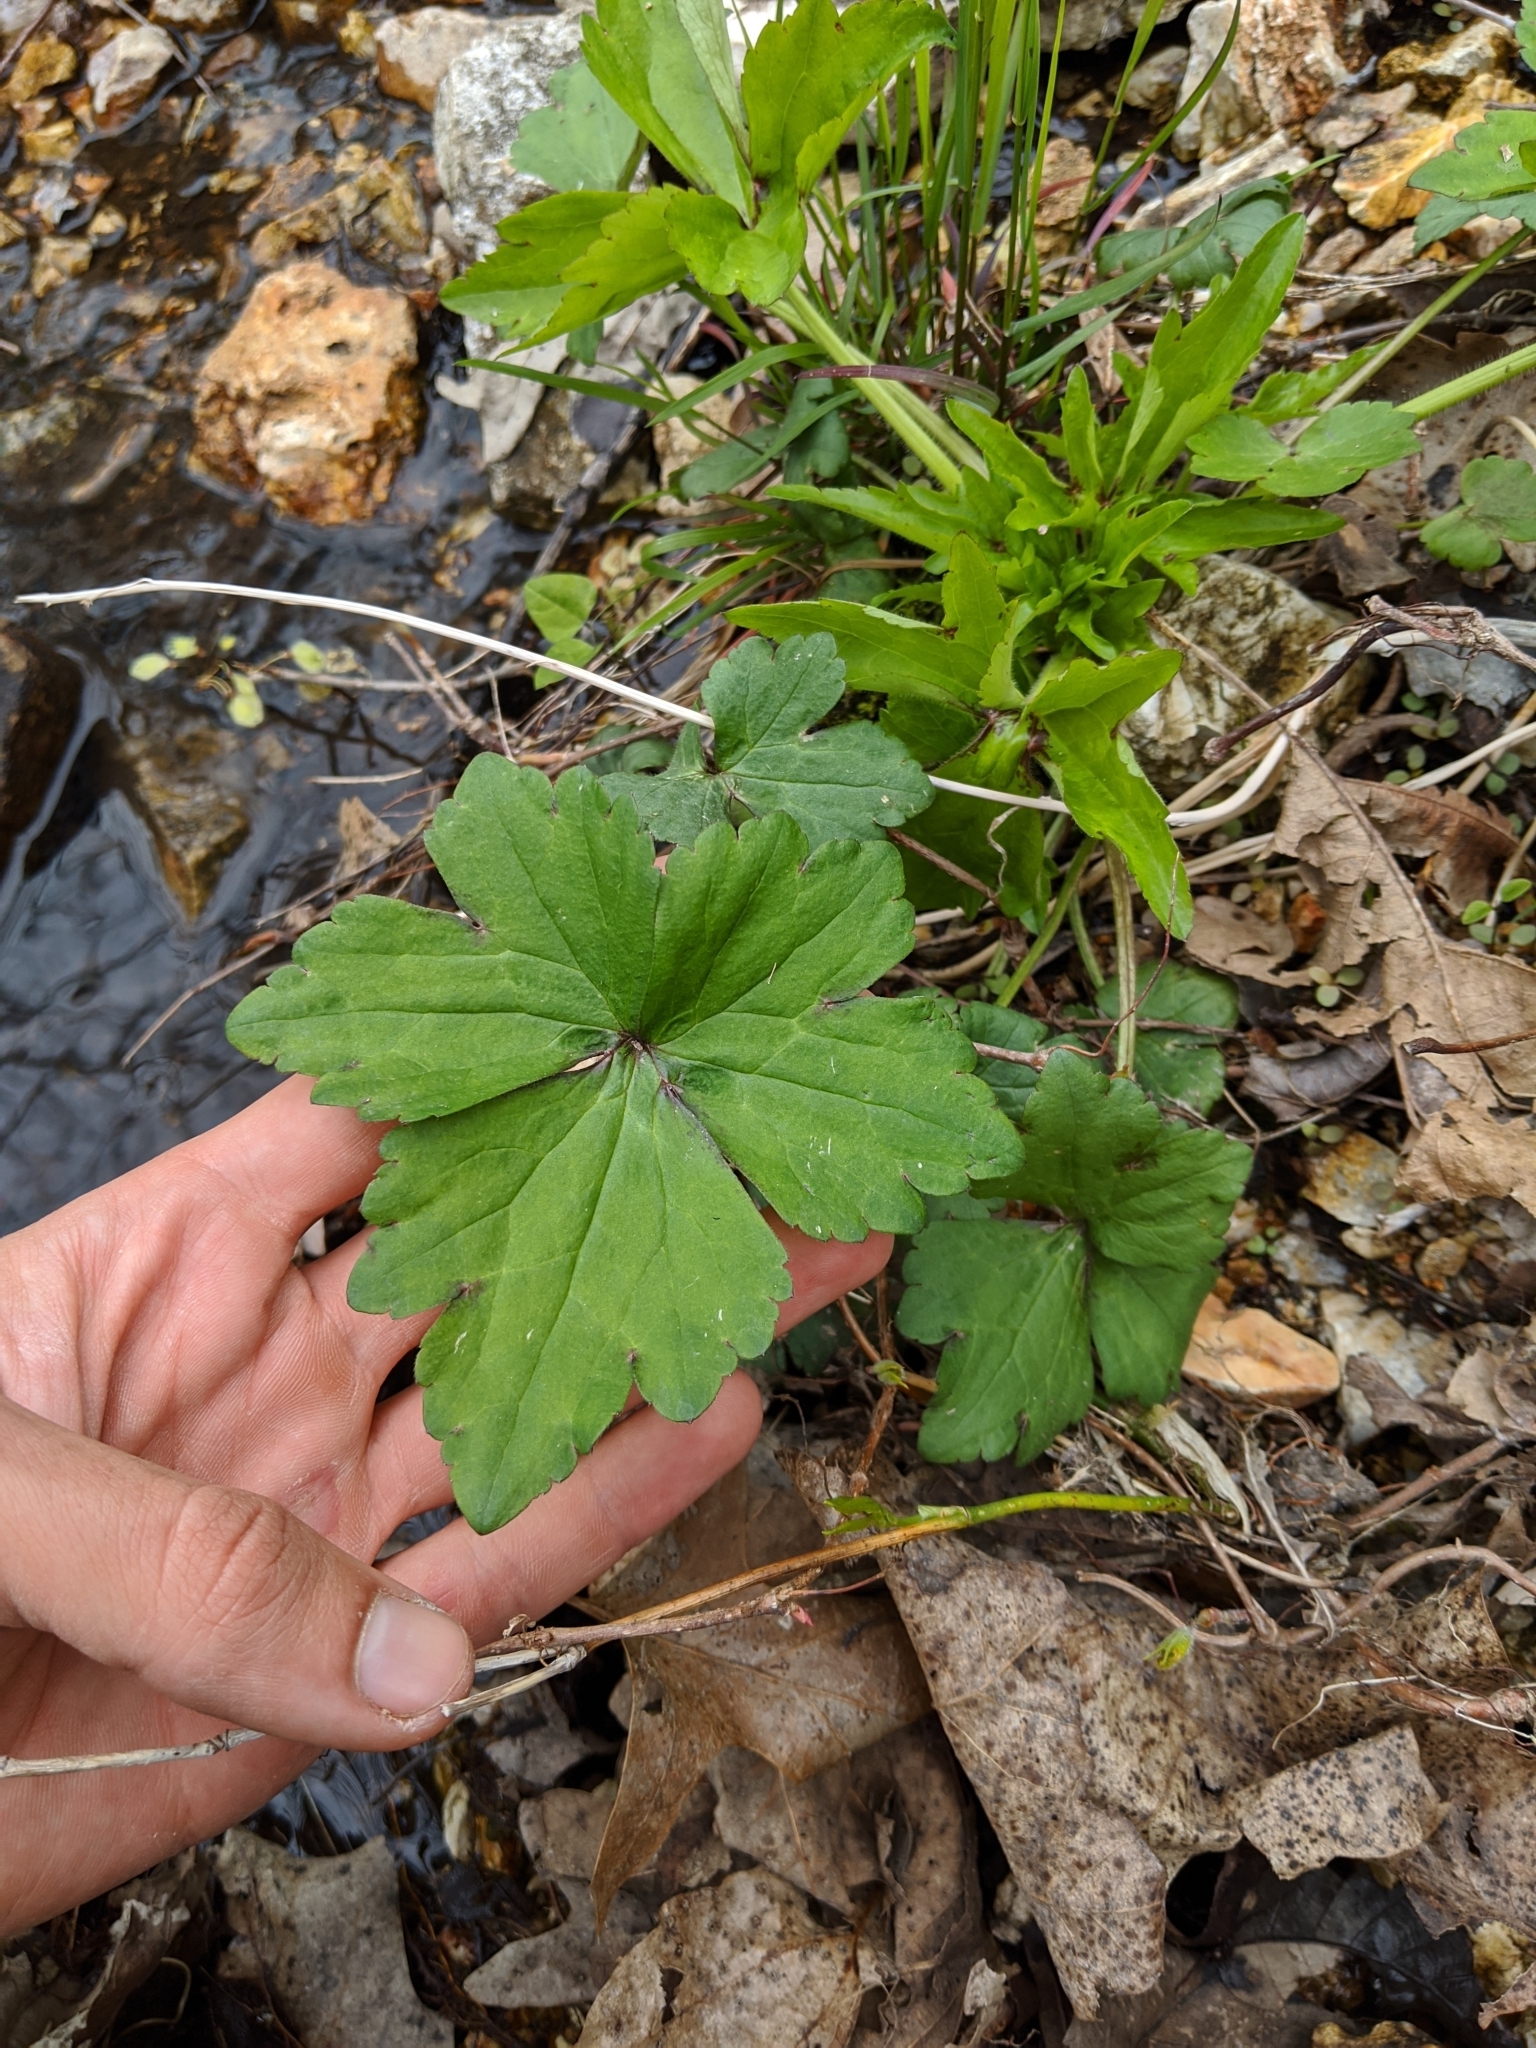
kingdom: Plantae
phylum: Tracheophyta
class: Magnoliopsida
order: Ranunculales
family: Ranunculaceae
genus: Ranunculus
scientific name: Ranunculus recurvatus
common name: Blisterwort
